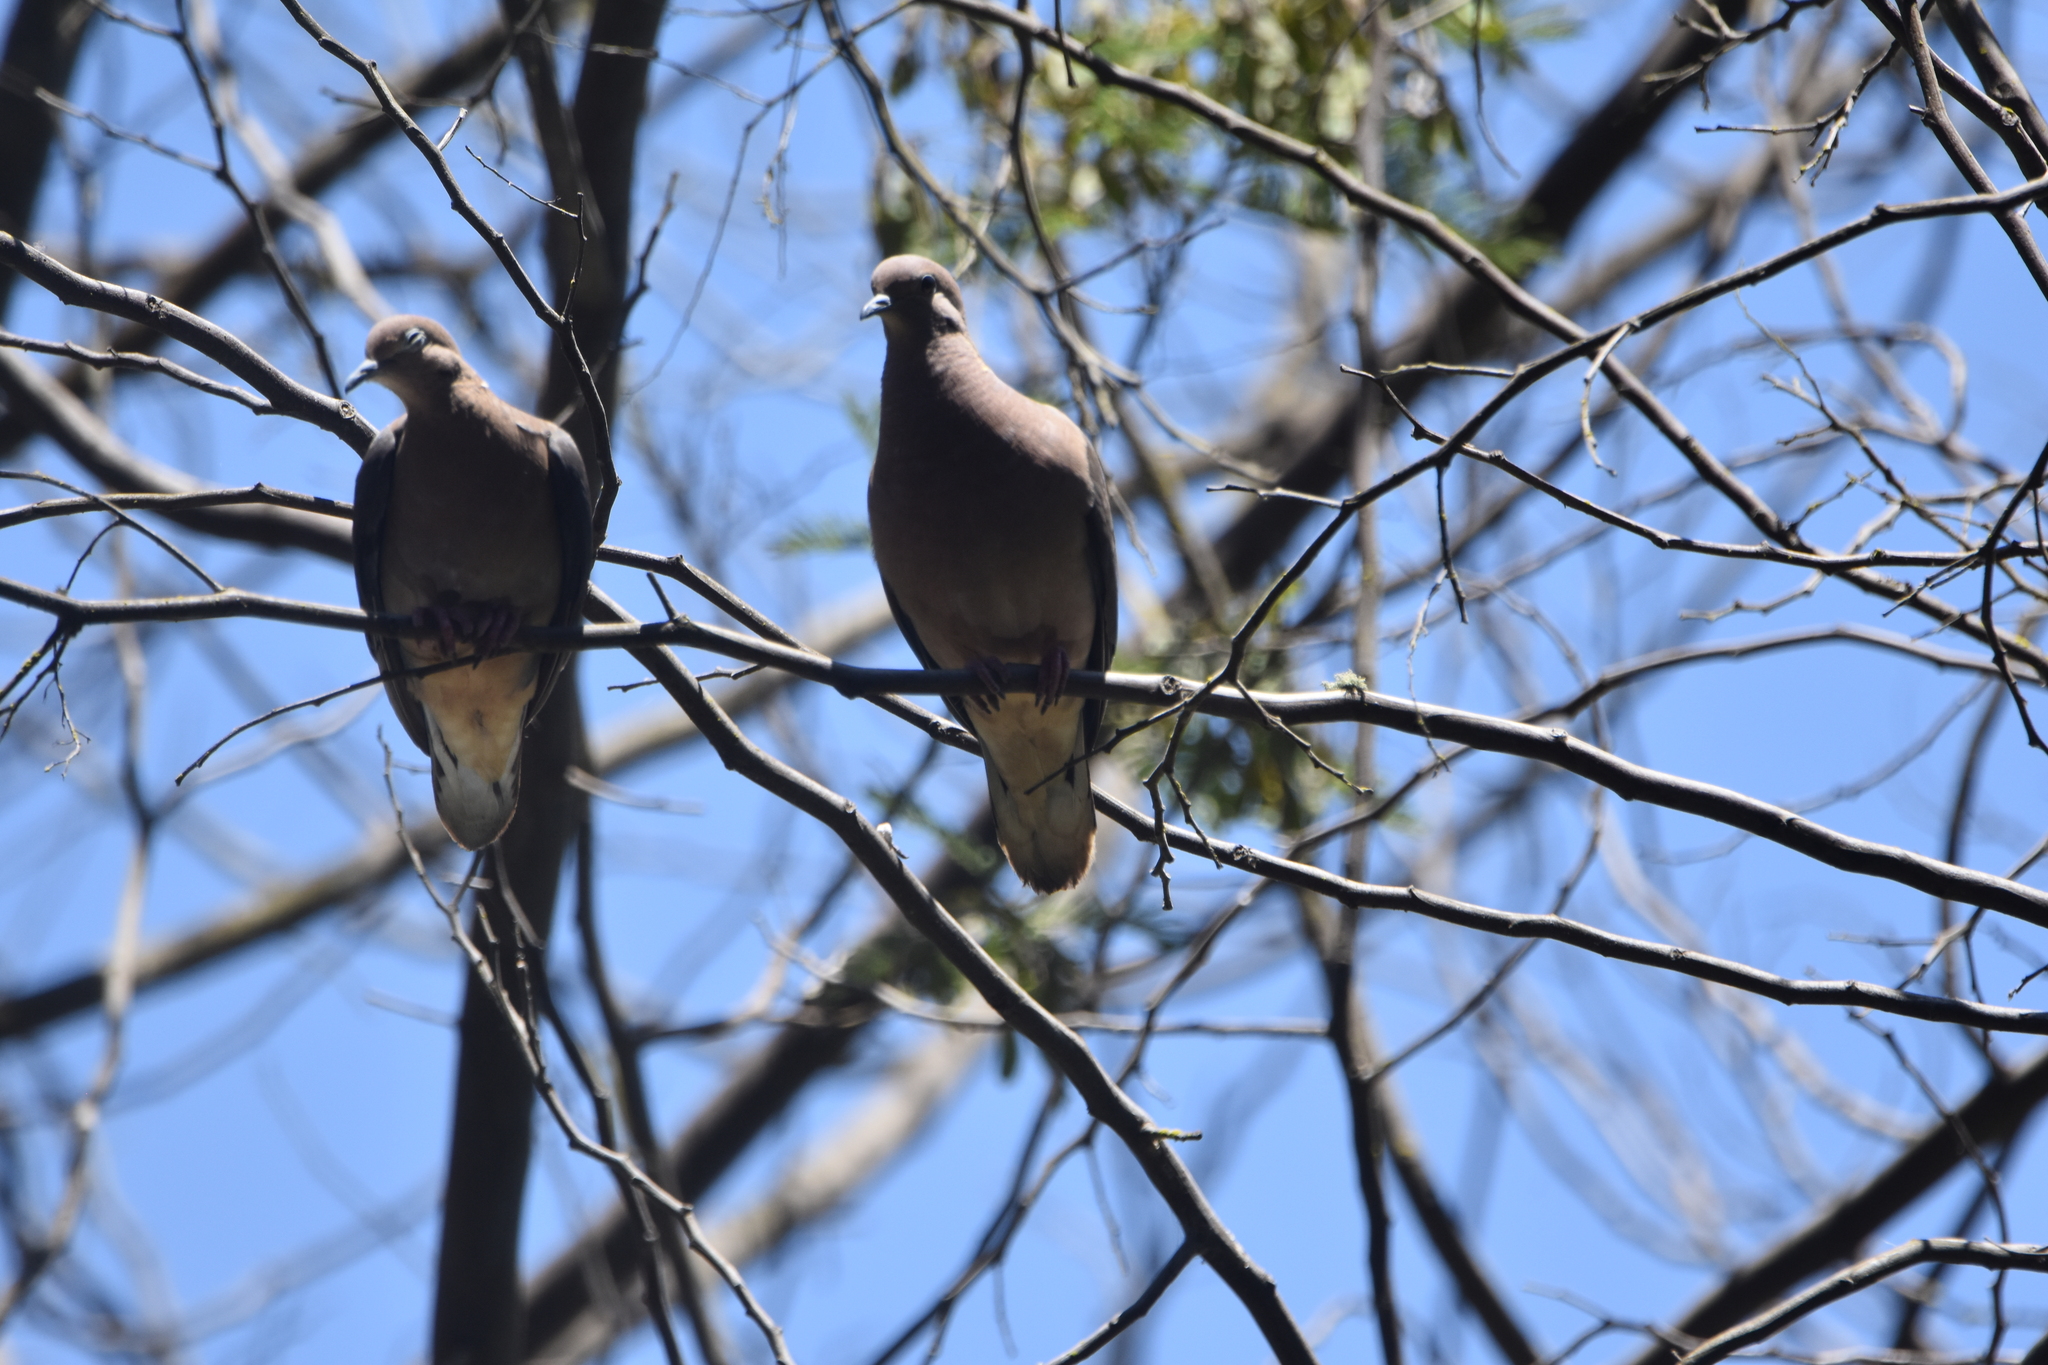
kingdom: Animalia
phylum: Chordata
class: Aves
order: Columbiformes
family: Columbidae
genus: Zenaida
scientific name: Zenaida auriculata
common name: Eared dove
